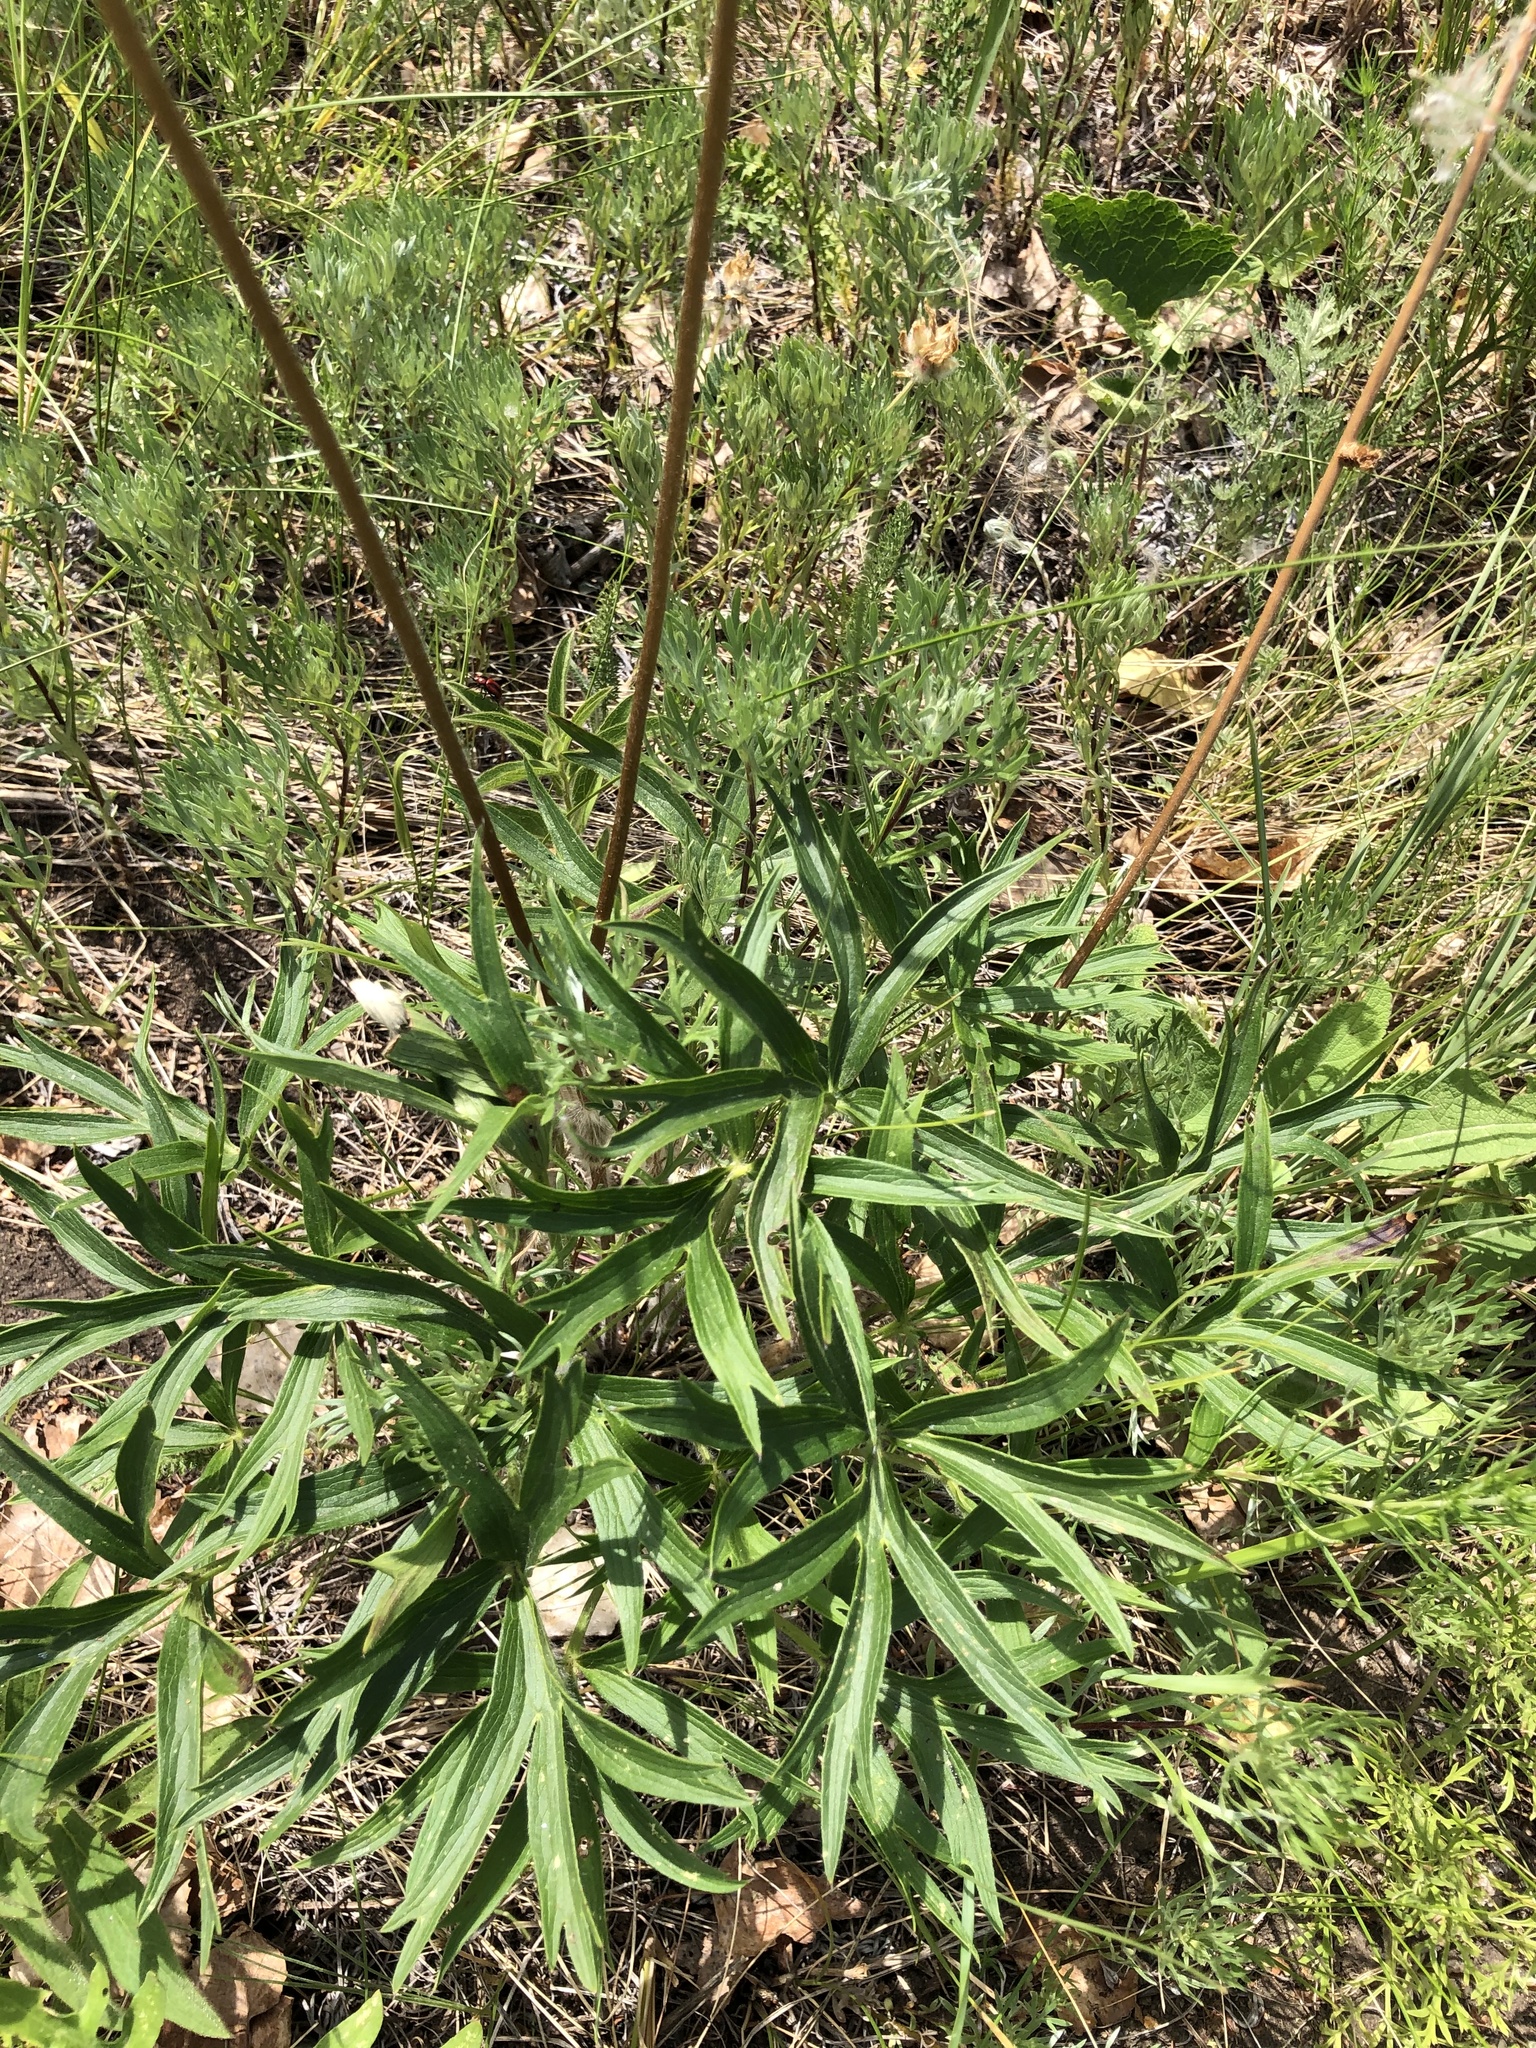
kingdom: Plantae
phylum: Tracheophyta
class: Magnoliopsida
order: Ranunculales
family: Ranunculaceae
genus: Pulsatilla
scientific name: Pulsatilla patens
